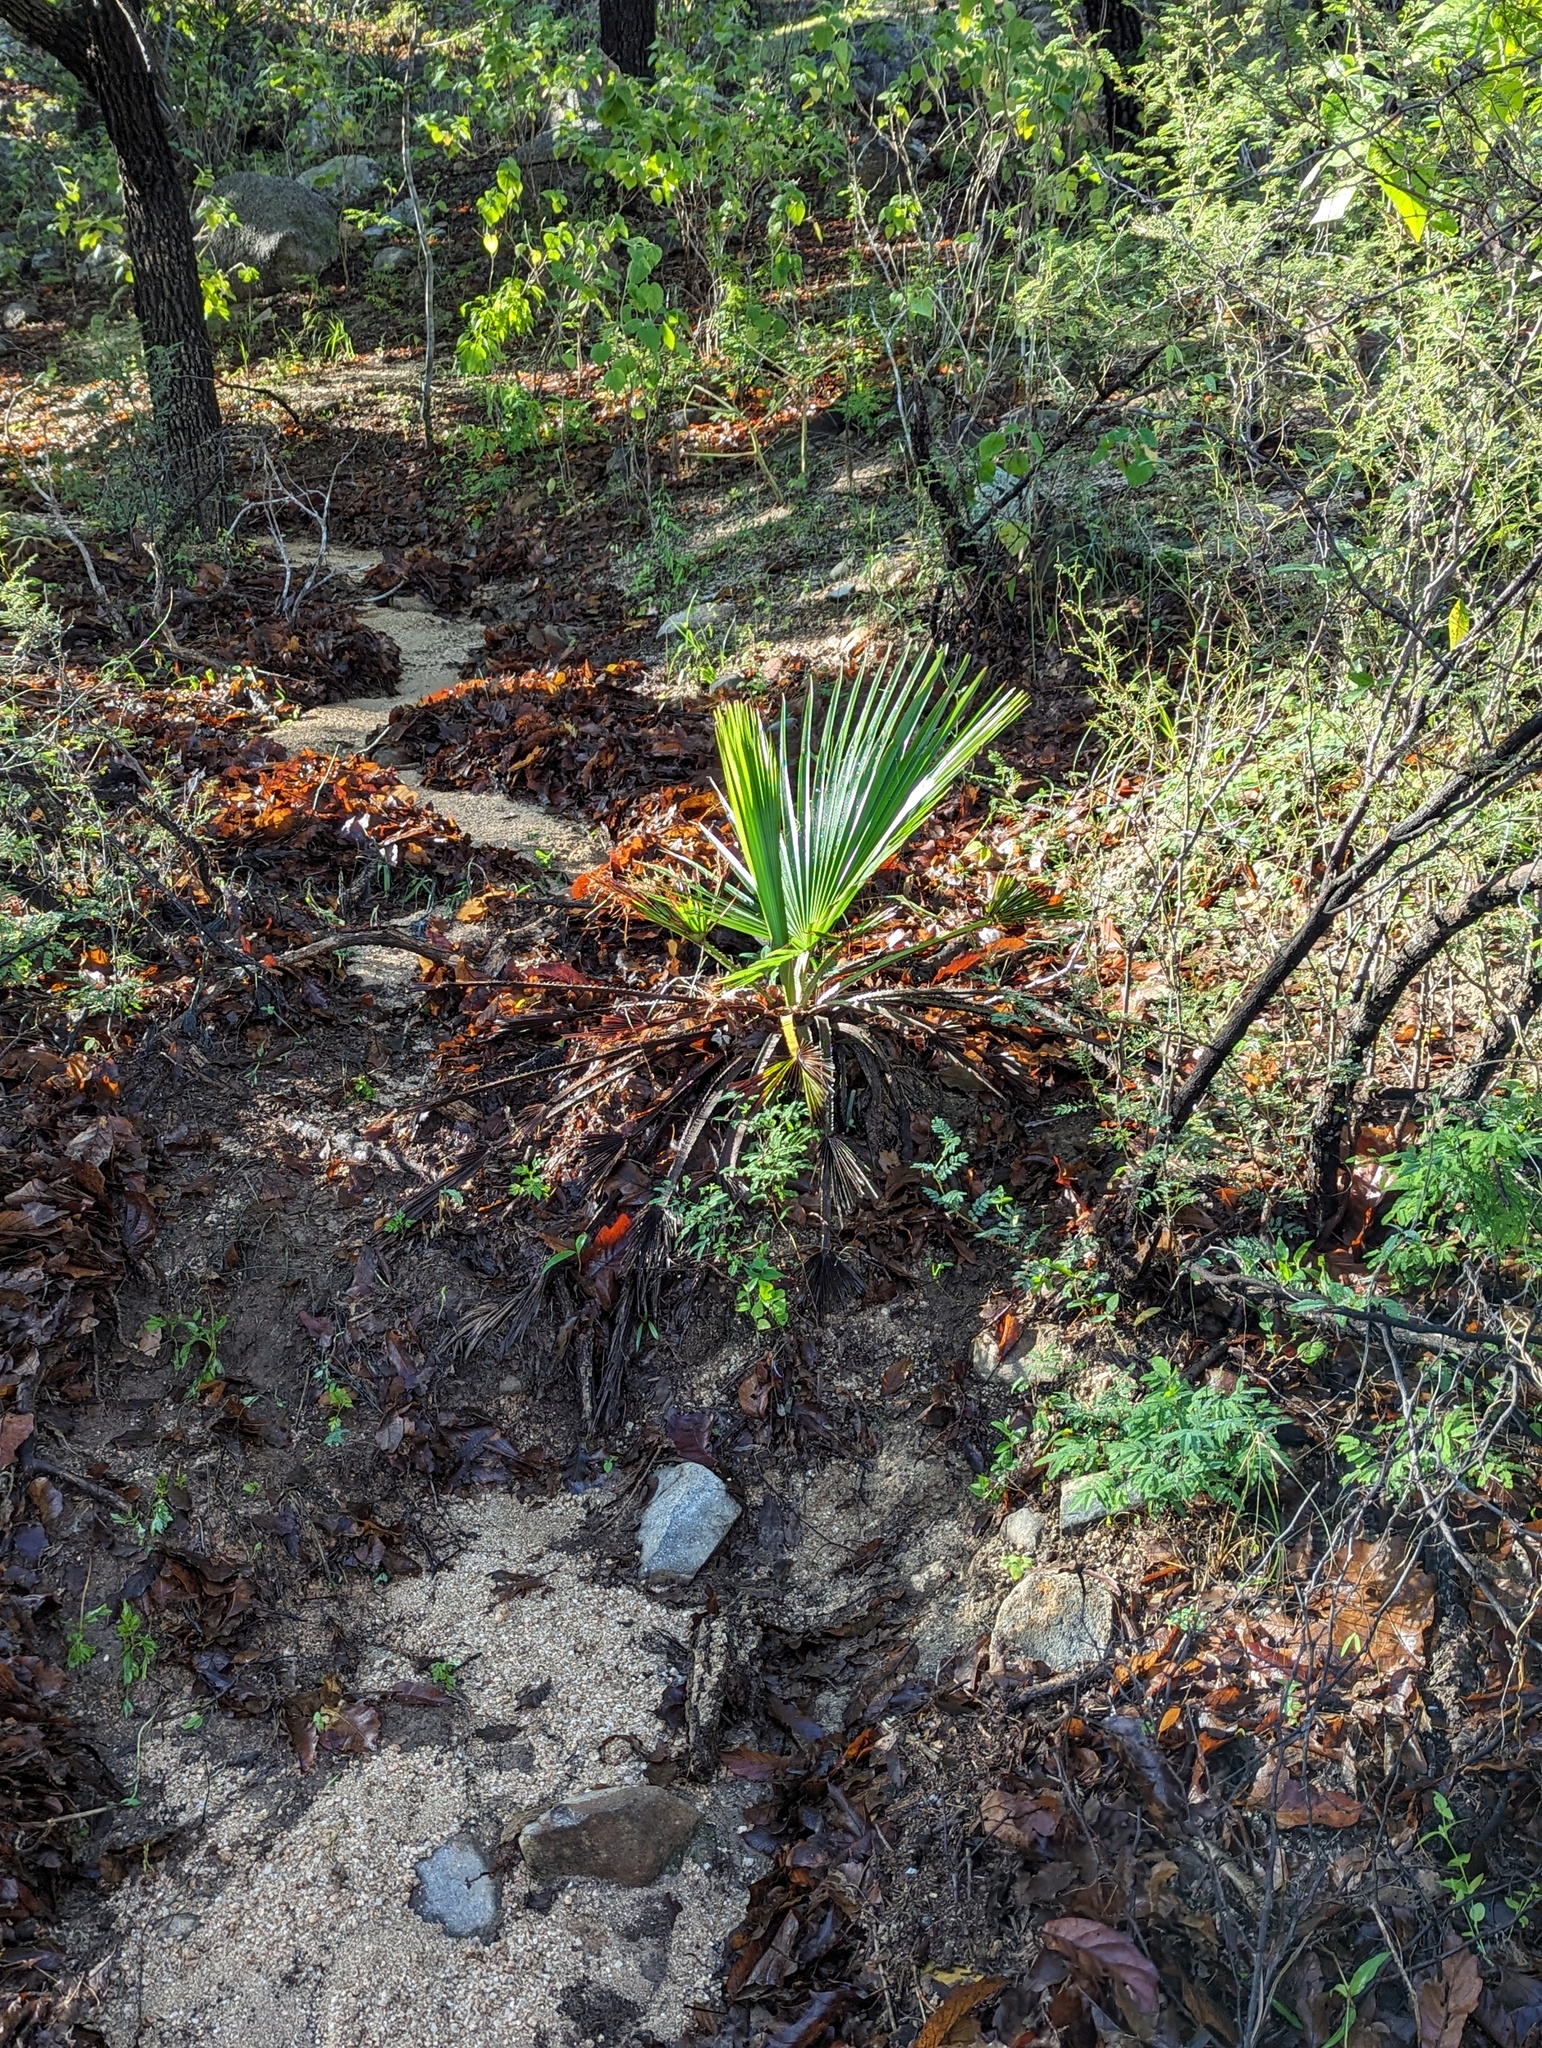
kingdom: Plantae
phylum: Tracheophyta
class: Liliopsida
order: Arecales
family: Arecaceae
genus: Brahea
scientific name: Brahea brandegeei
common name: San jose hesper palm
